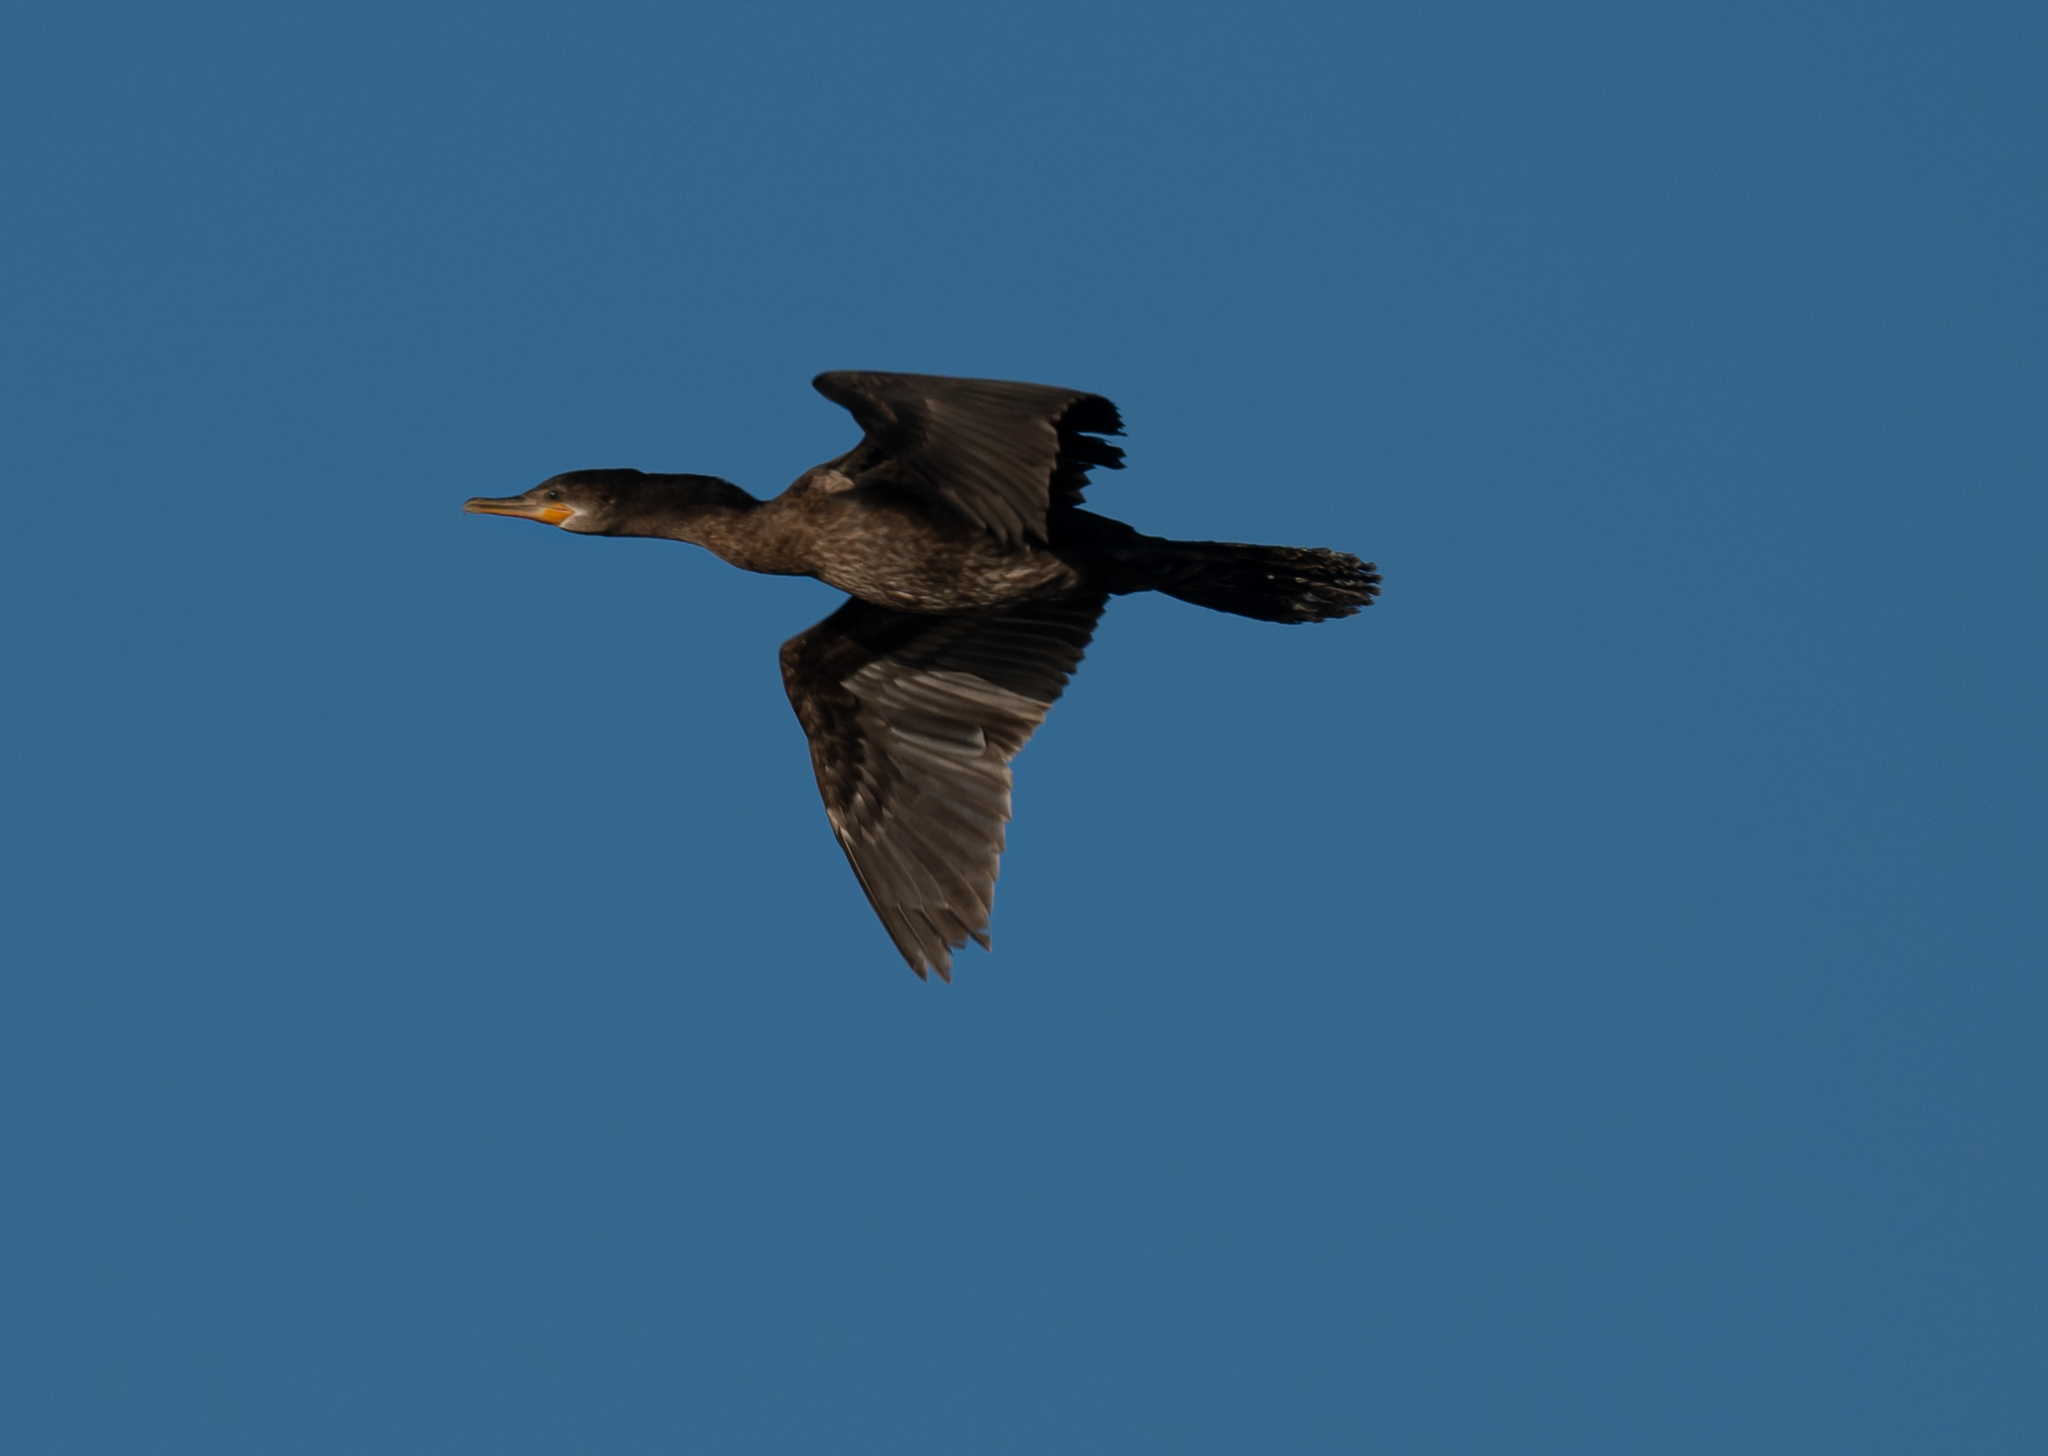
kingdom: Animalia
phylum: Chordata
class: Aves
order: Suliformes
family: Phalacrocoracidae
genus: Phalacrocorax
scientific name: Phalacrocorax brasilianus
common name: Neotropic cormorant
